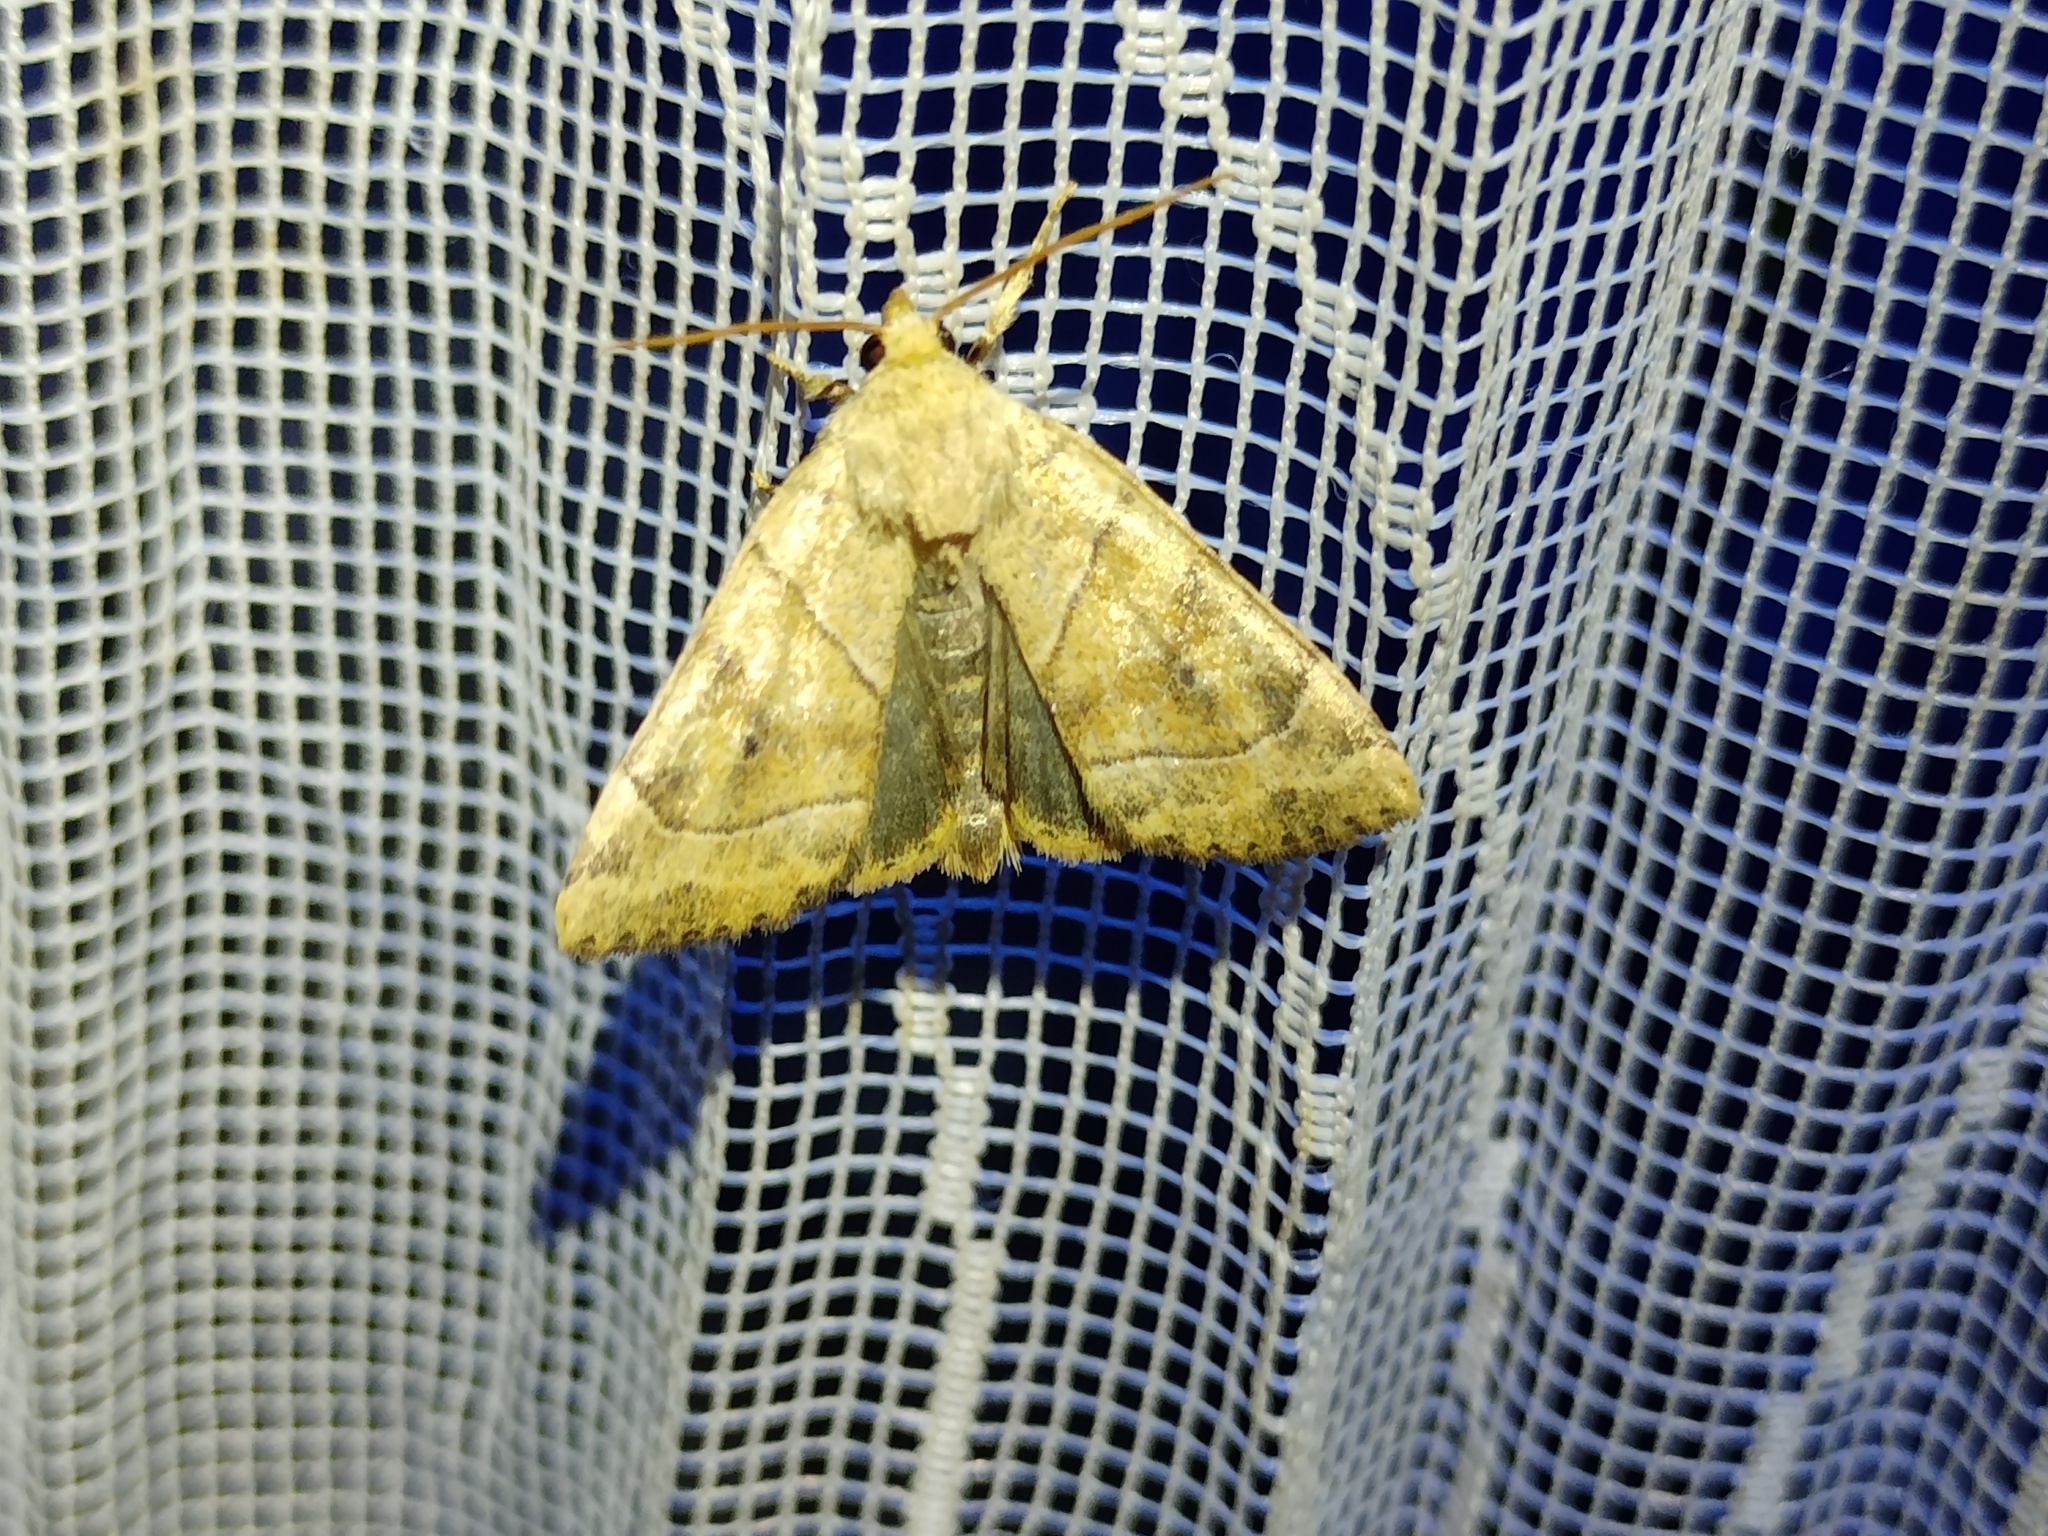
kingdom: Animalia
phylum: Arthropoda
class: Insecta
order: Lepidoptera
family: Noctuidae
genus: Cosmia
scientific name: Cosmia trapezina
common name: Dun-bar
